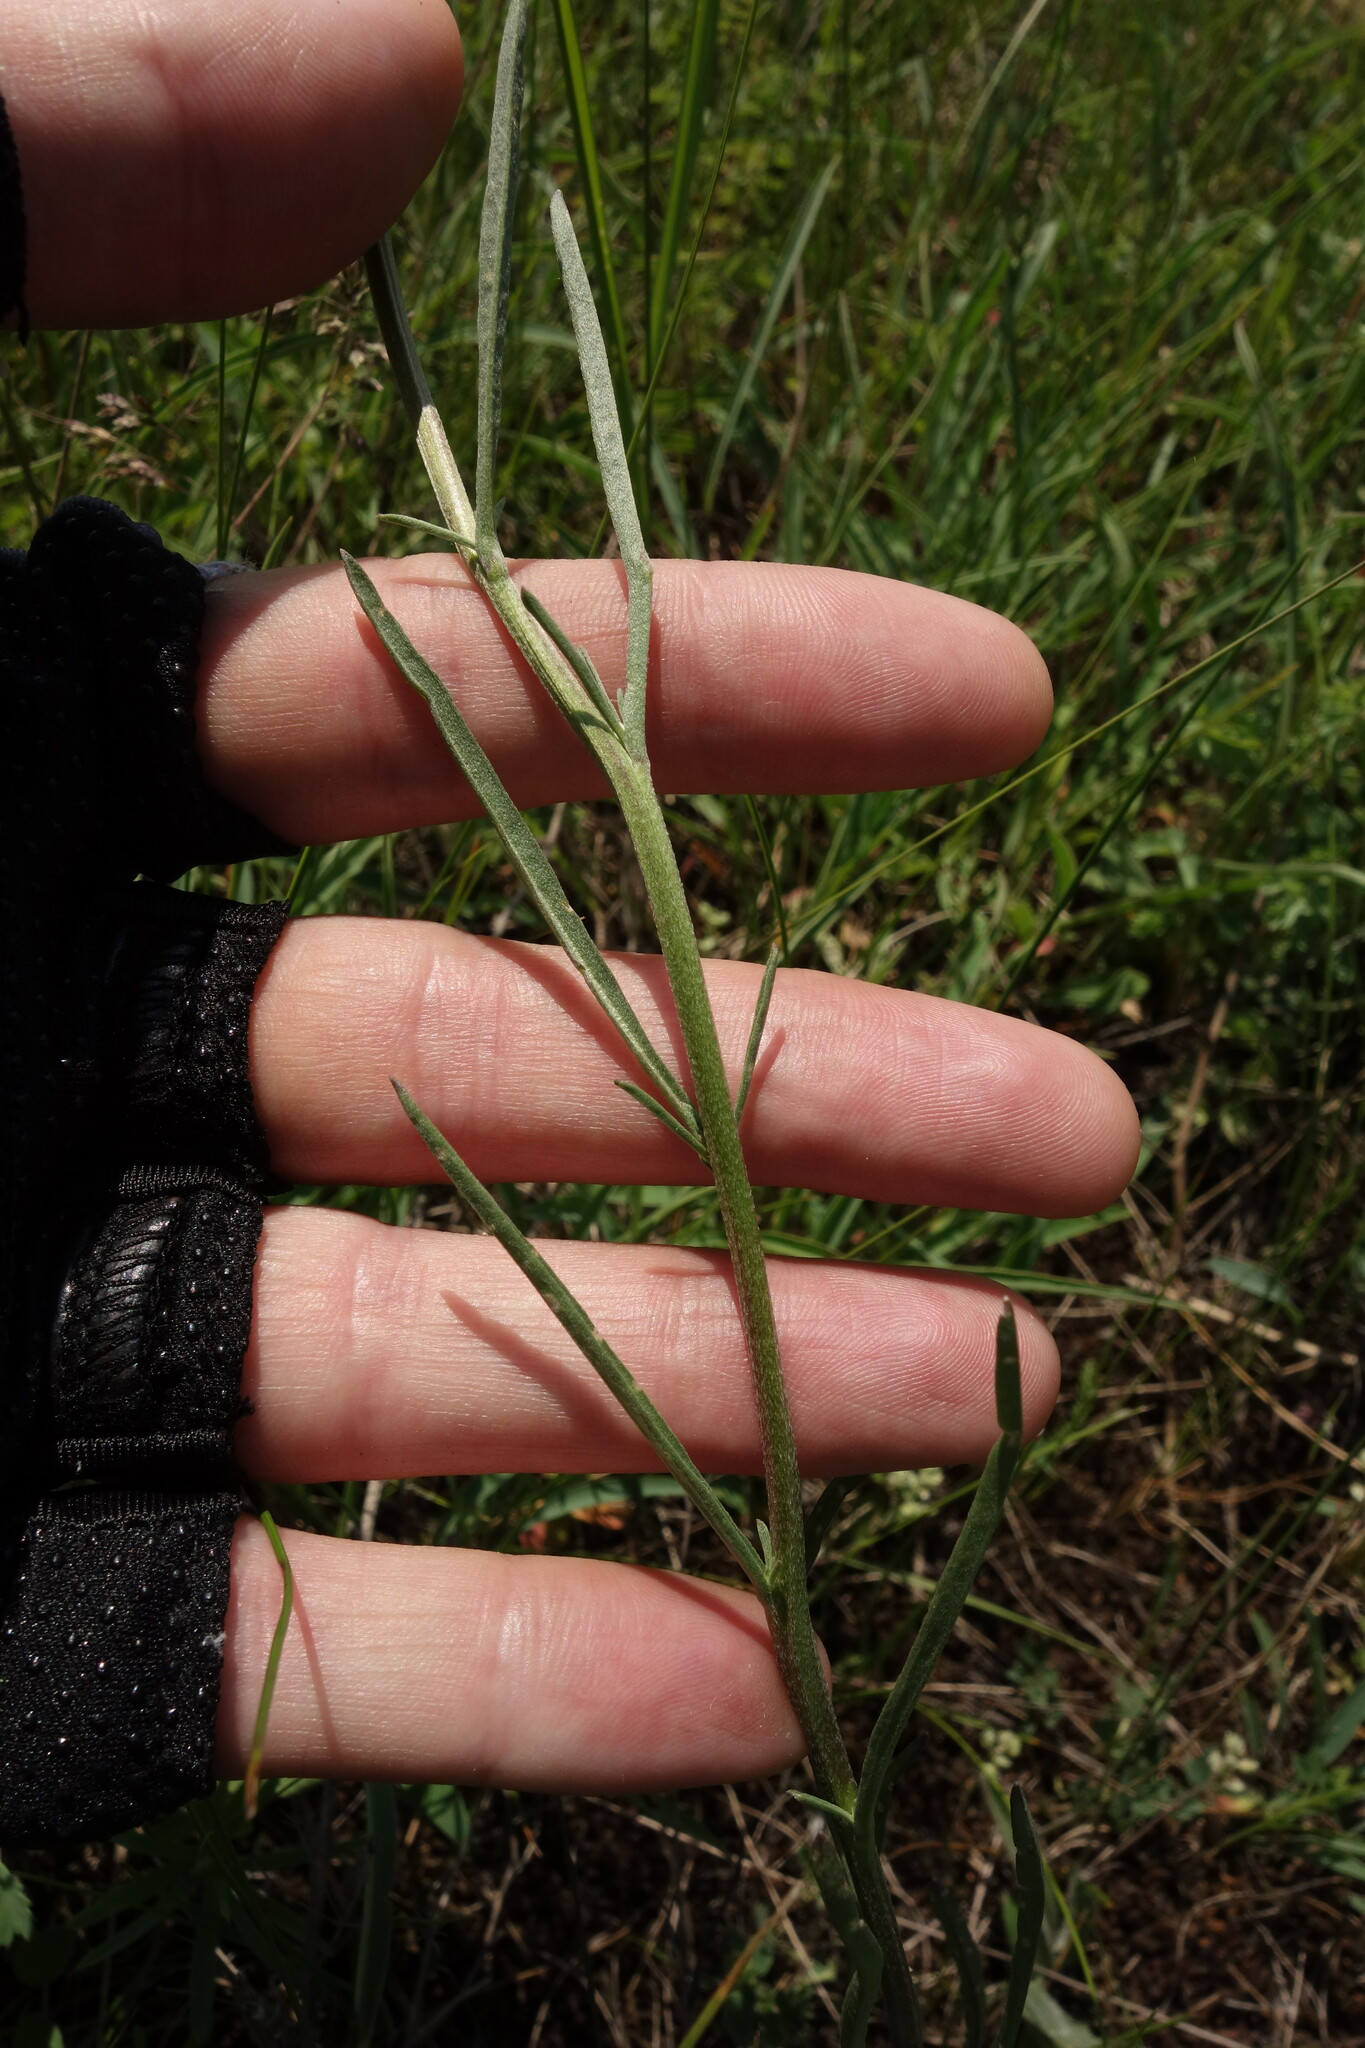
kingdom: Plantae
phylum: Tracheophyta
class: Magnoliopsida
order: Brassicales
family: Brassicaceae
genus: Erysimum
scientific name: Erysimum diffusum
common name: Diffuse wallflower
